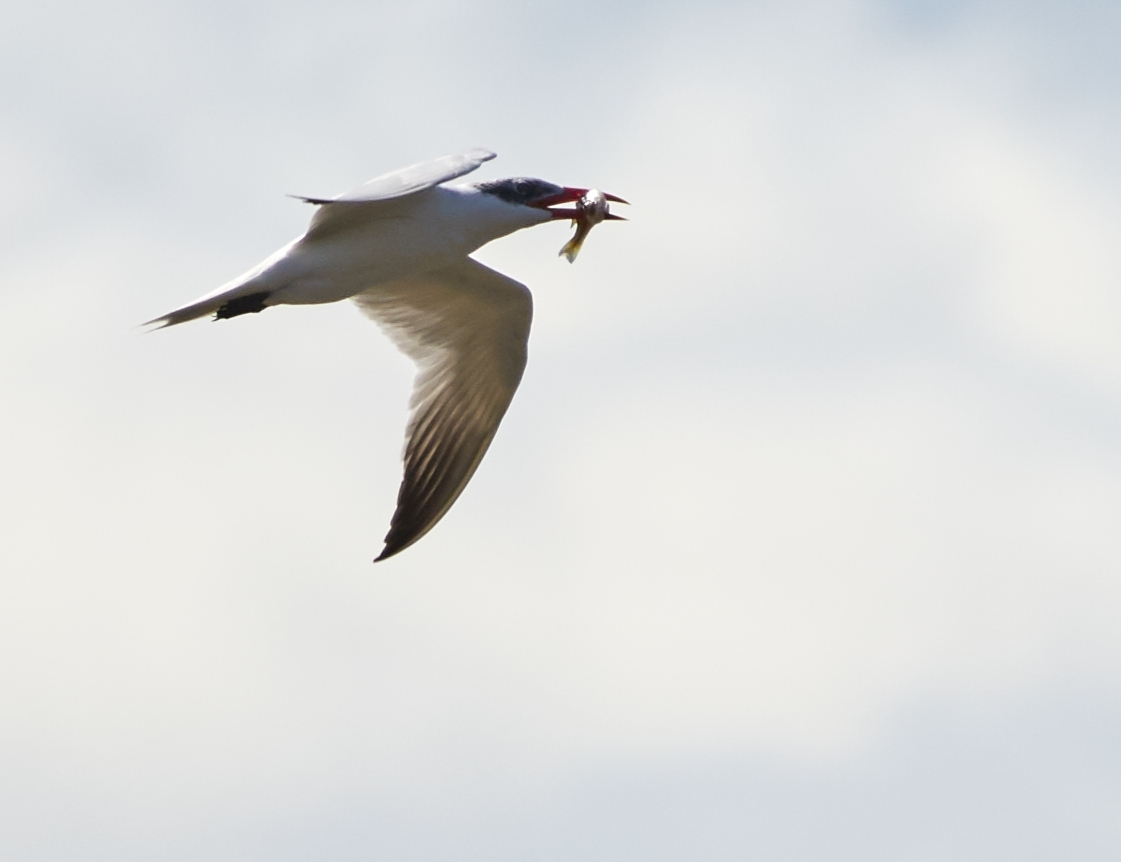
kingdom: Animalia
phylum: Chordata
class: Aves
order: Charadriiformes
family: Laridae
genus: Hydroprogne
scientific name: Hydroprogne caspia
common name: Caspian tern
